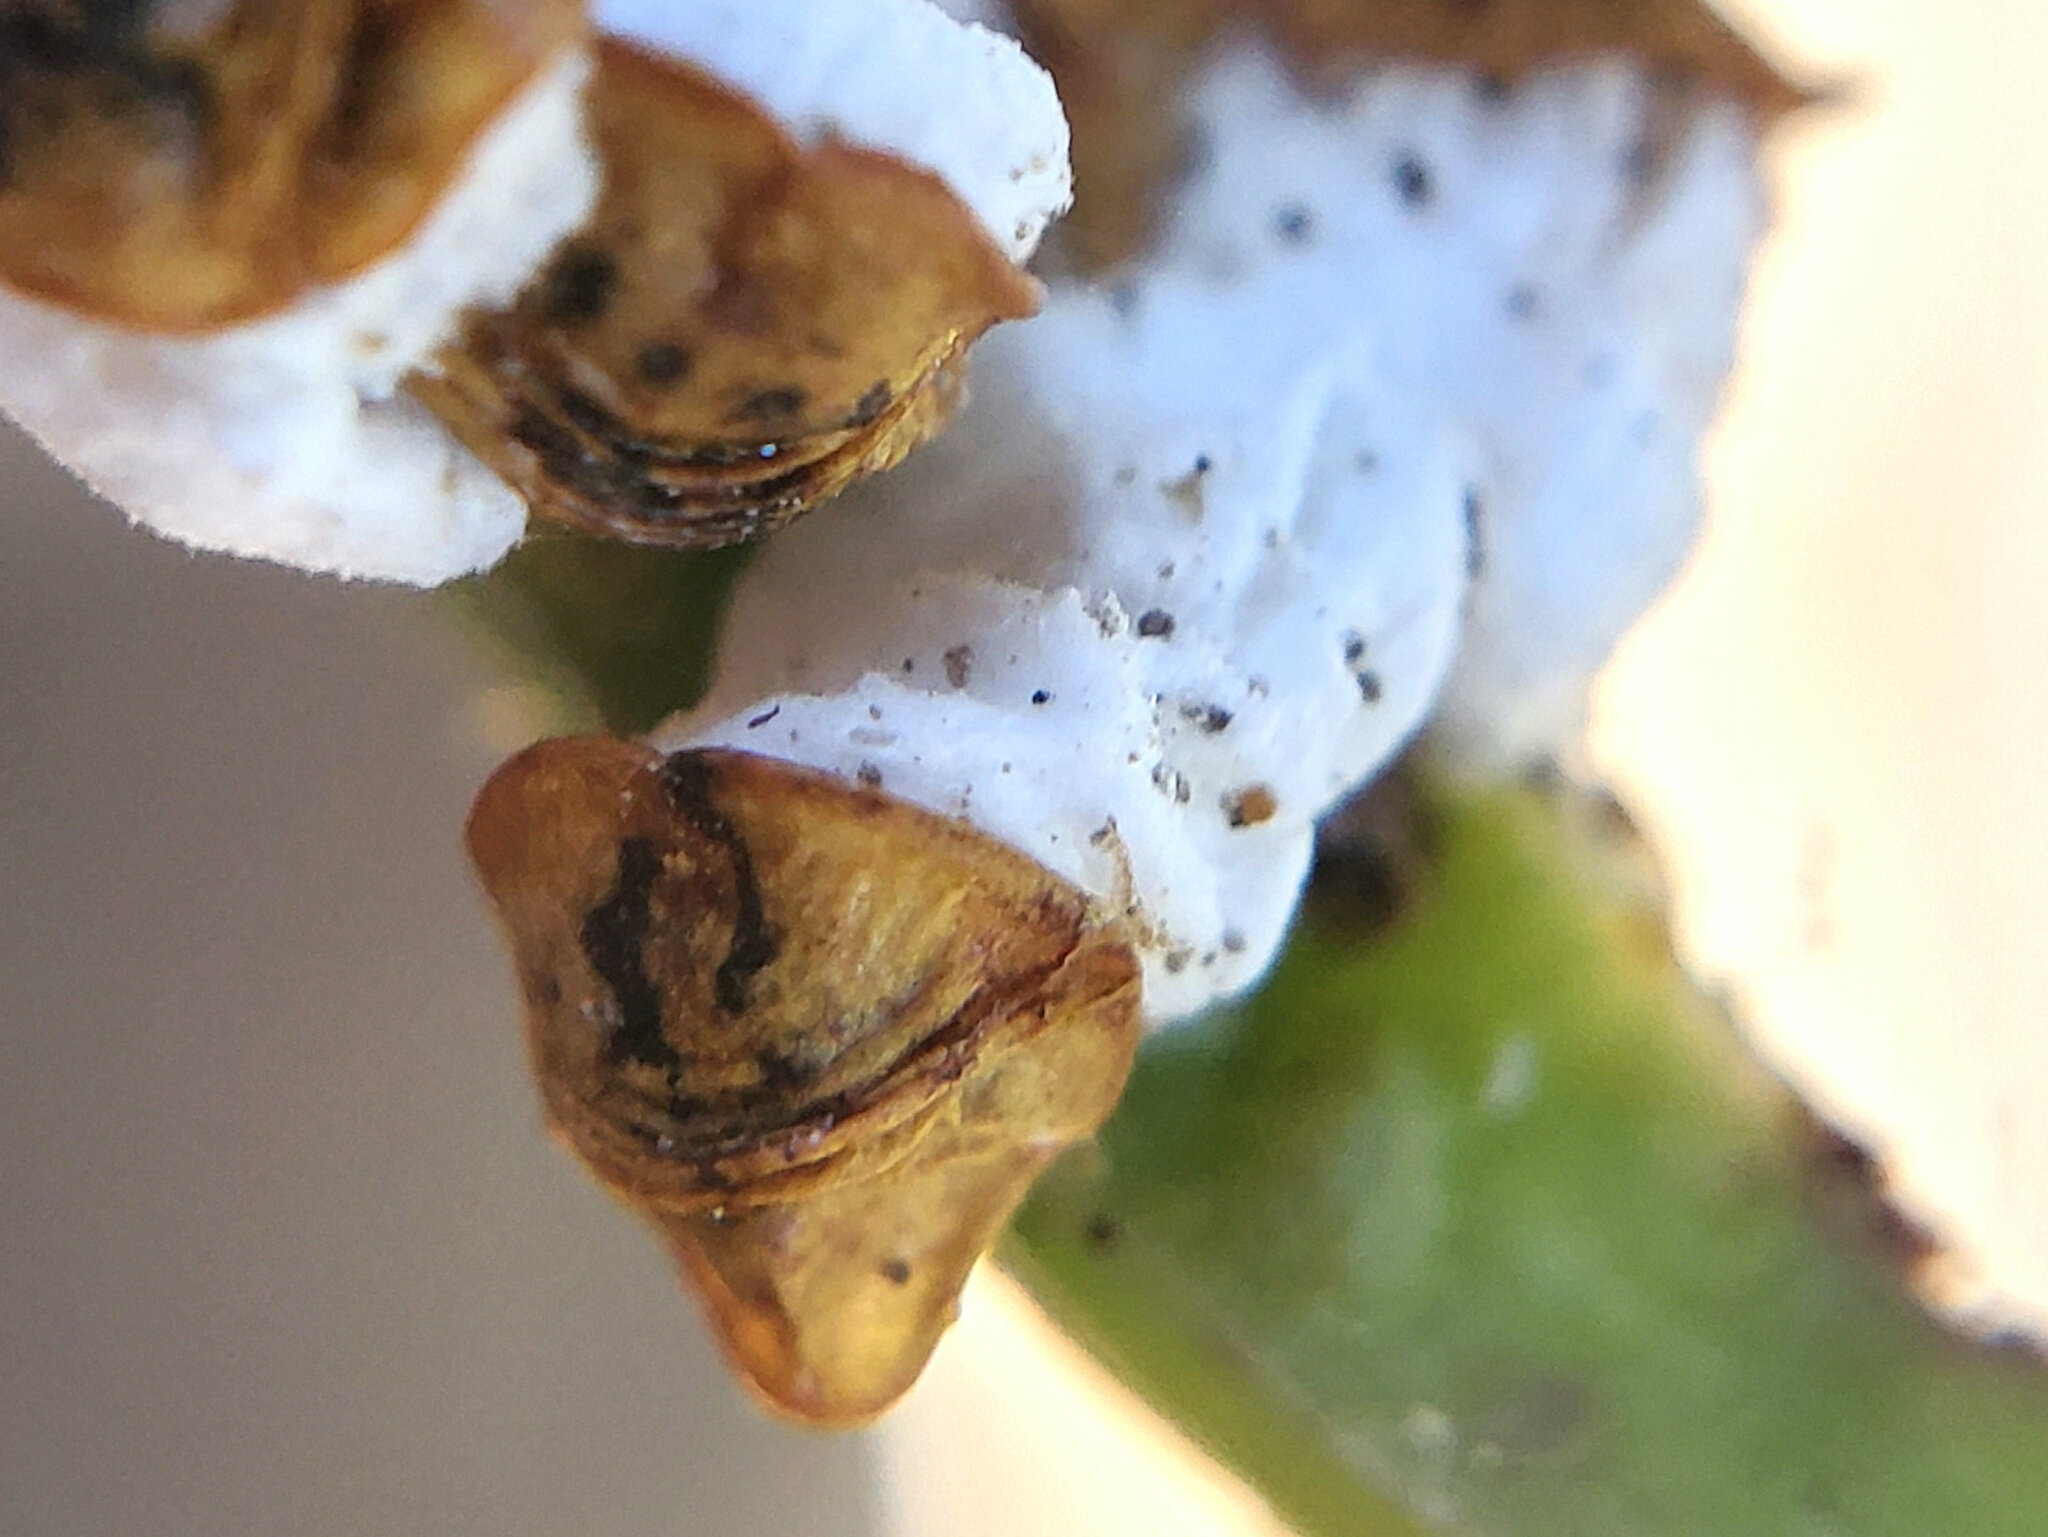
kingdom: Animalia
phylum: Arthropoda
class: Insecta
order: Hemiptera
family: Coccidae
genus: Pulvinariella
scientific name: Pulvinariella mesembryanthemi
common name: Cottony pigface scale
